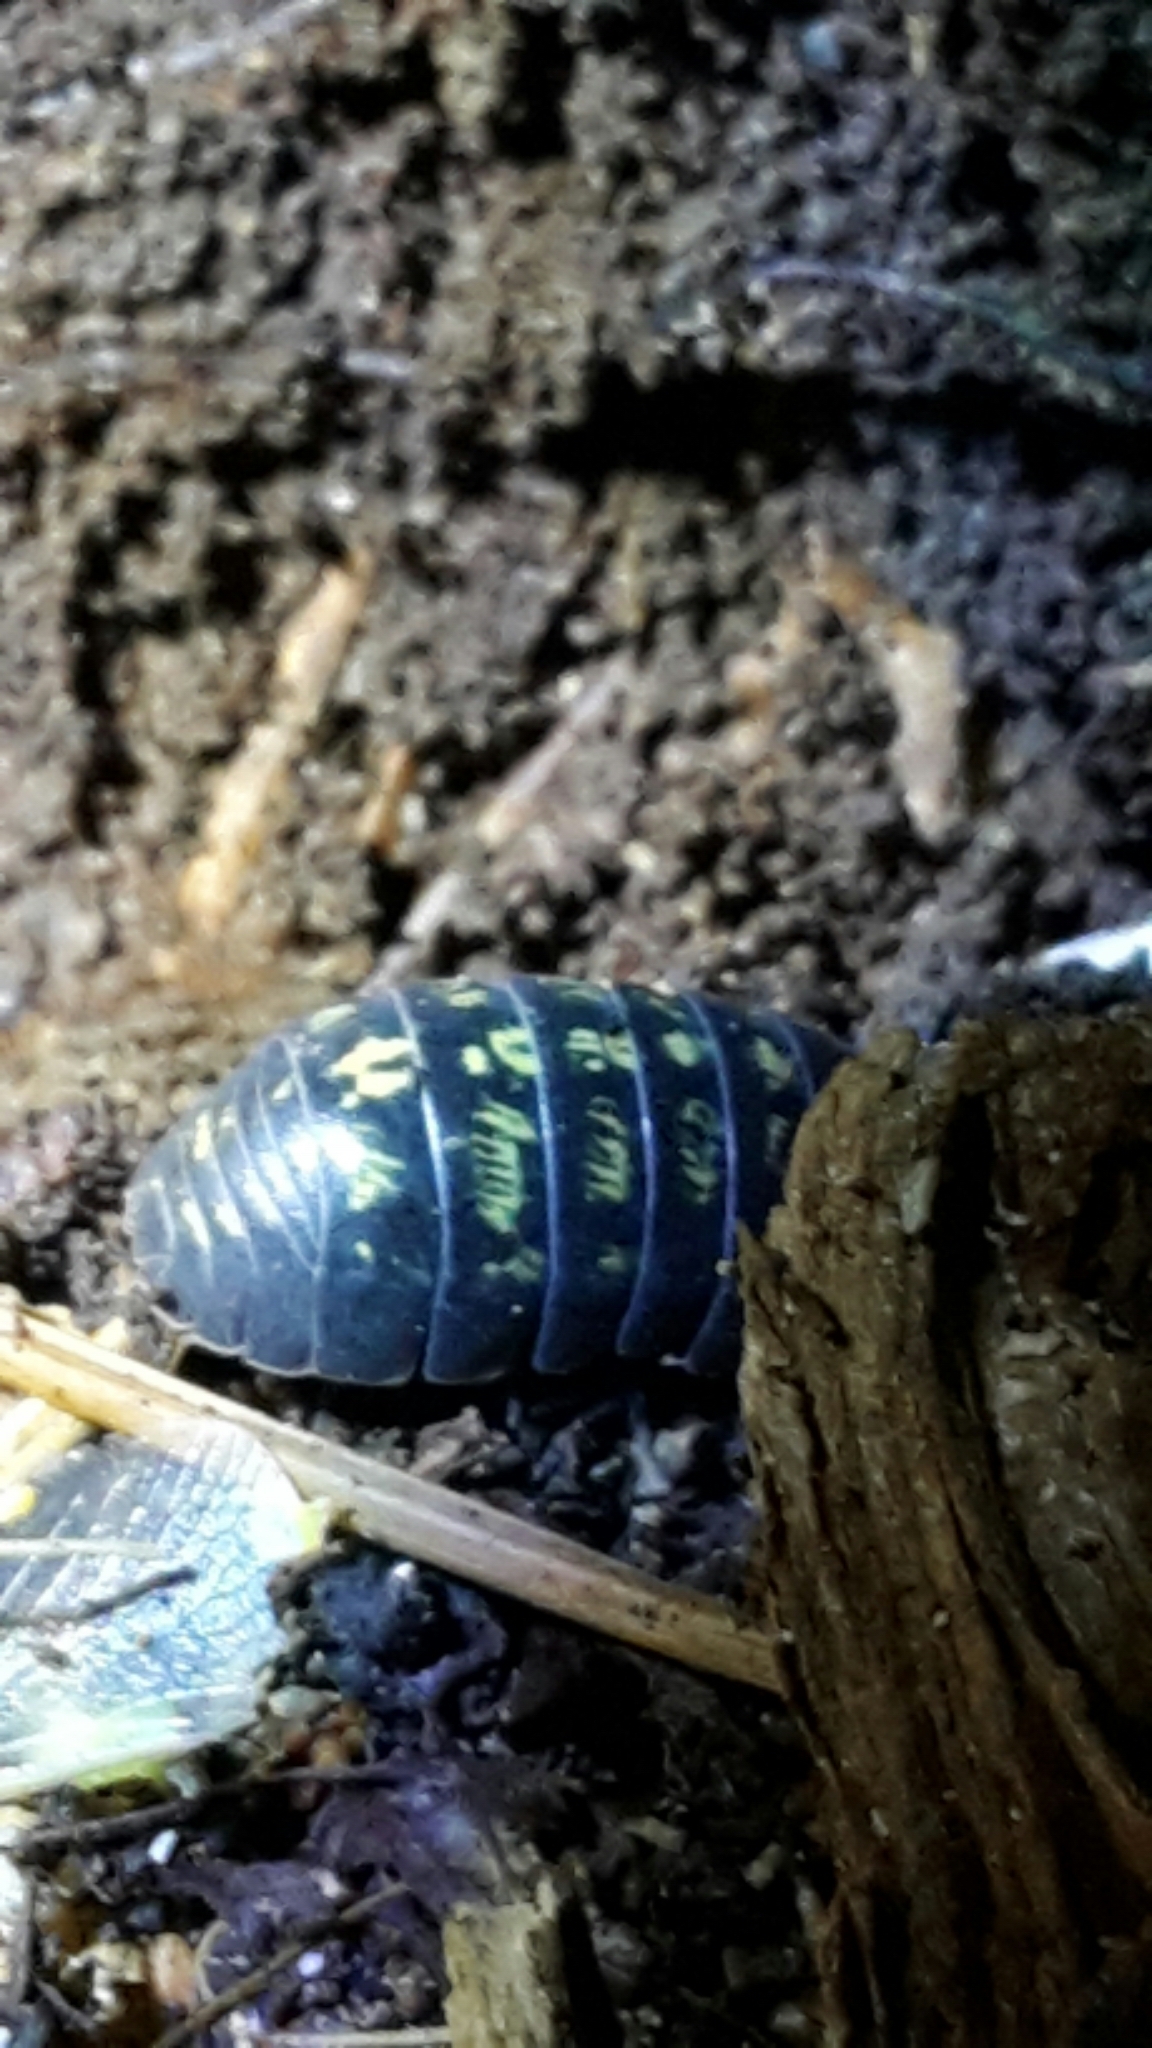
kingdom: Animalia
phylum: Arthropoda
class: Malacostraca
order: Isopoda
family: Armadillidiidae
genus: Armadillidium
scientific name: Armadillidium vulgare
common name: Common pill woodlouse
